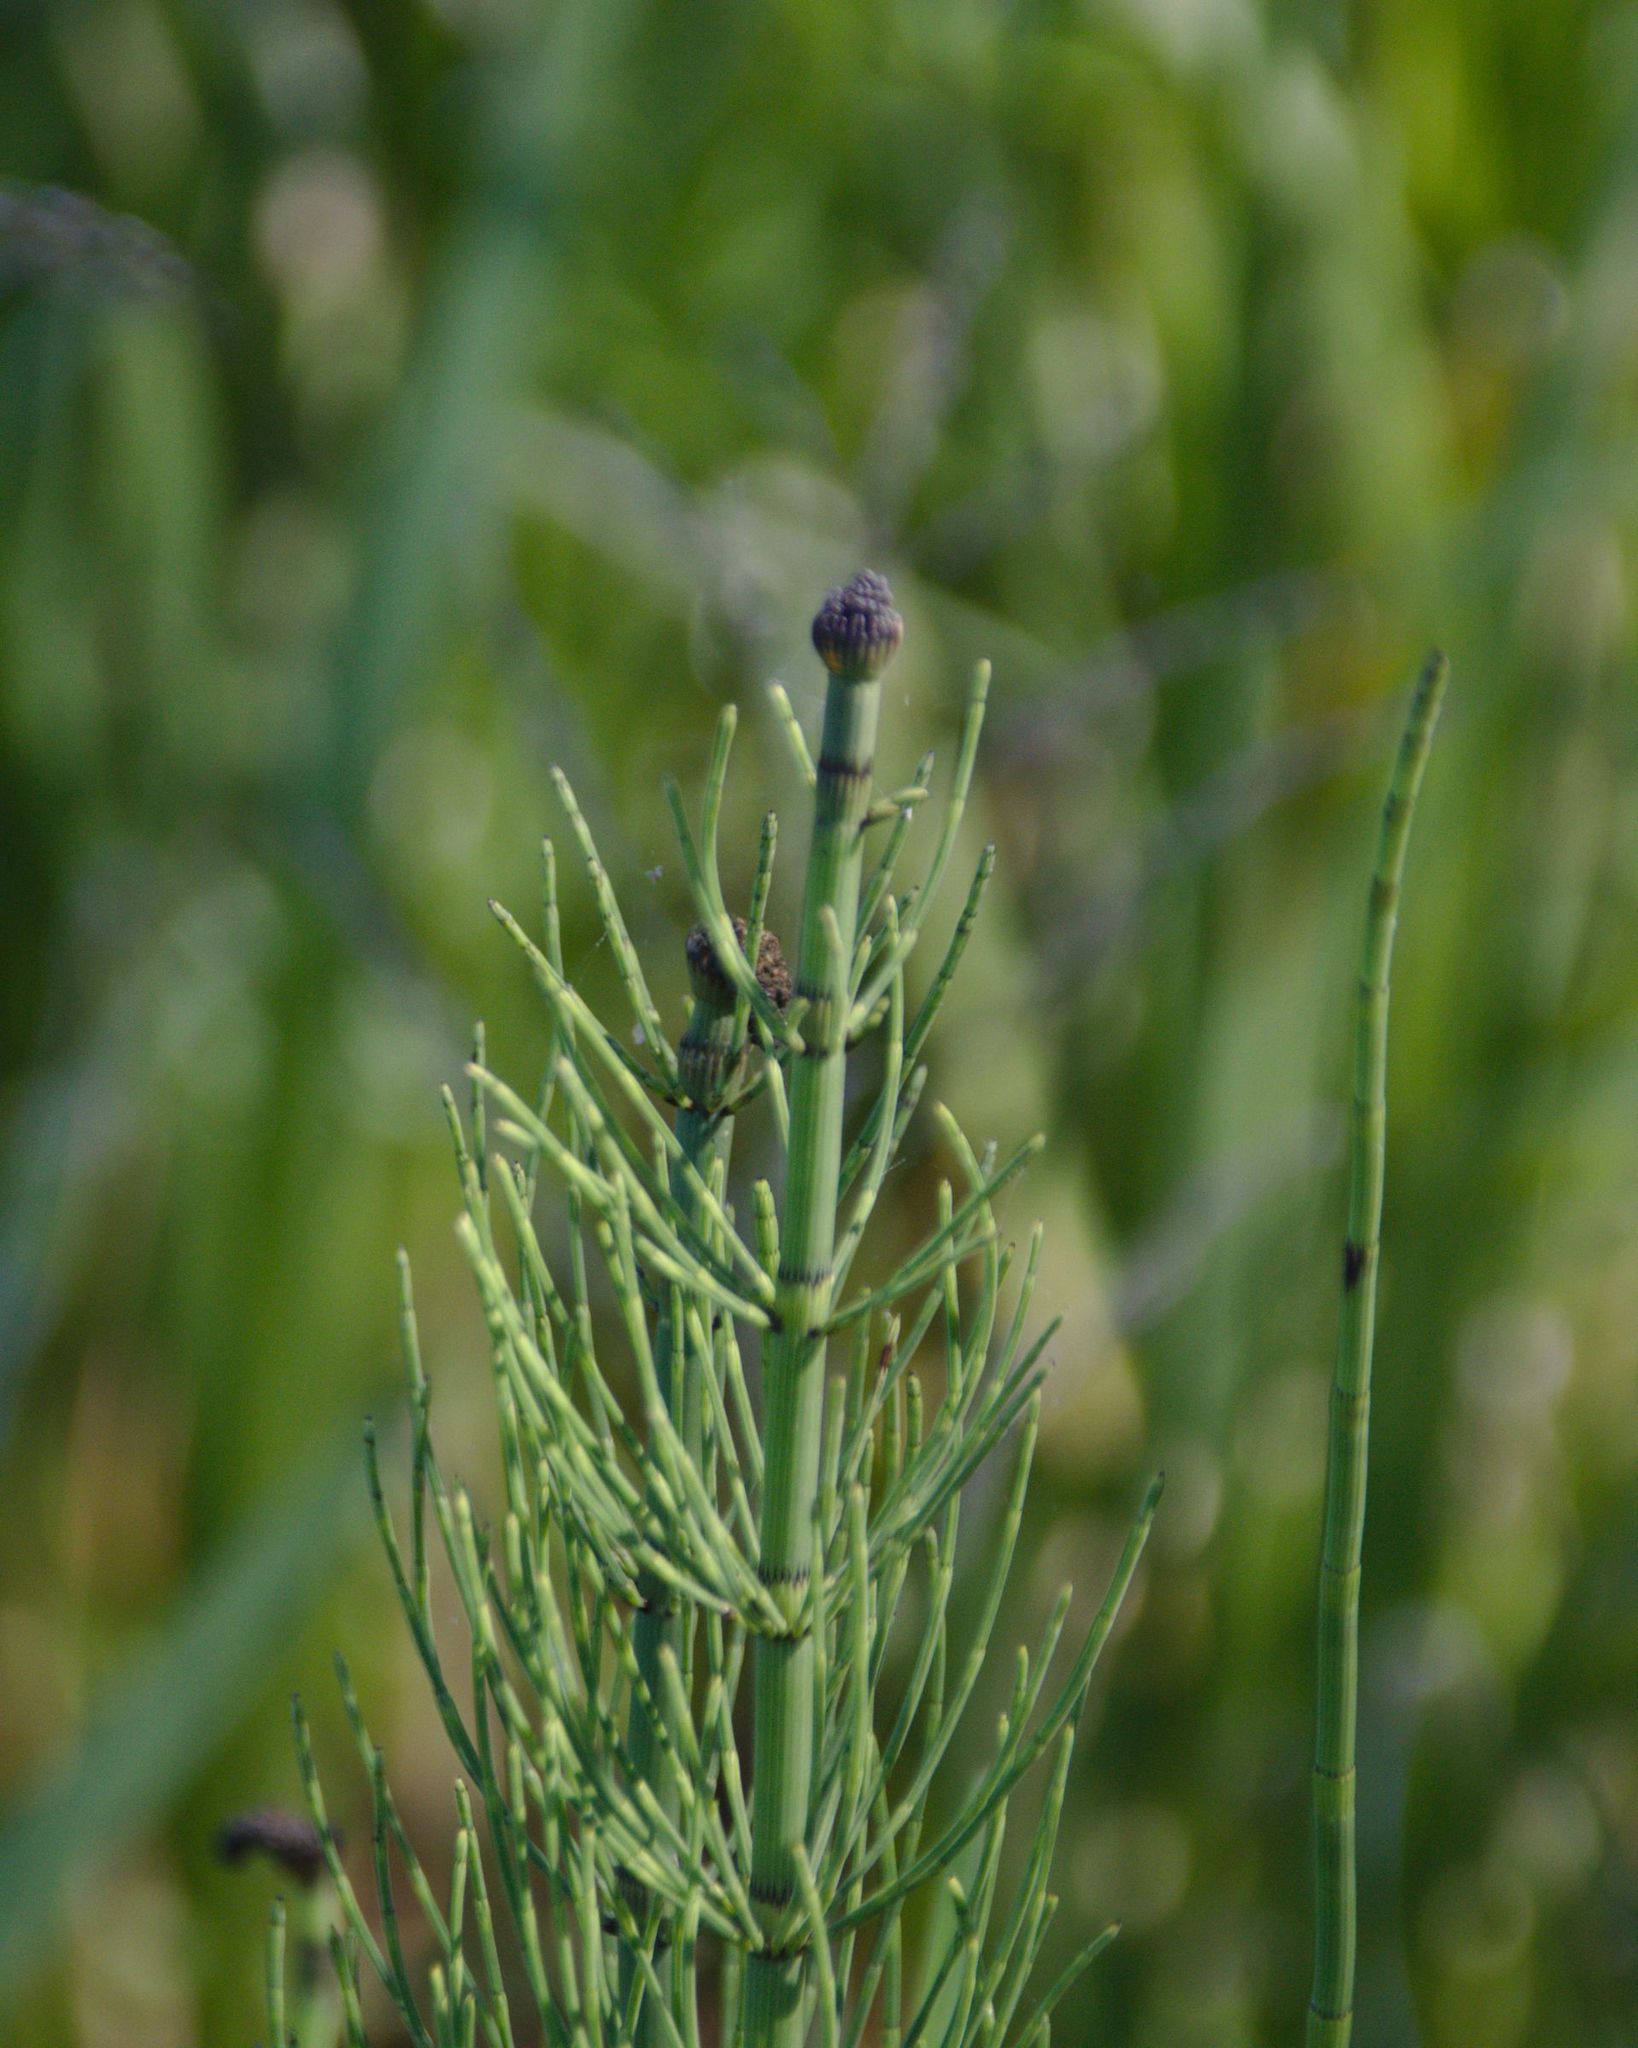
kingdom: Plantae
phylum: Tracheophyta
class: Polypodiopsida
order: Equisetales
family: Equisetaceae
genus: Equisetum
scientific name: Equisetum fluviatile
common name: Water horsetail
